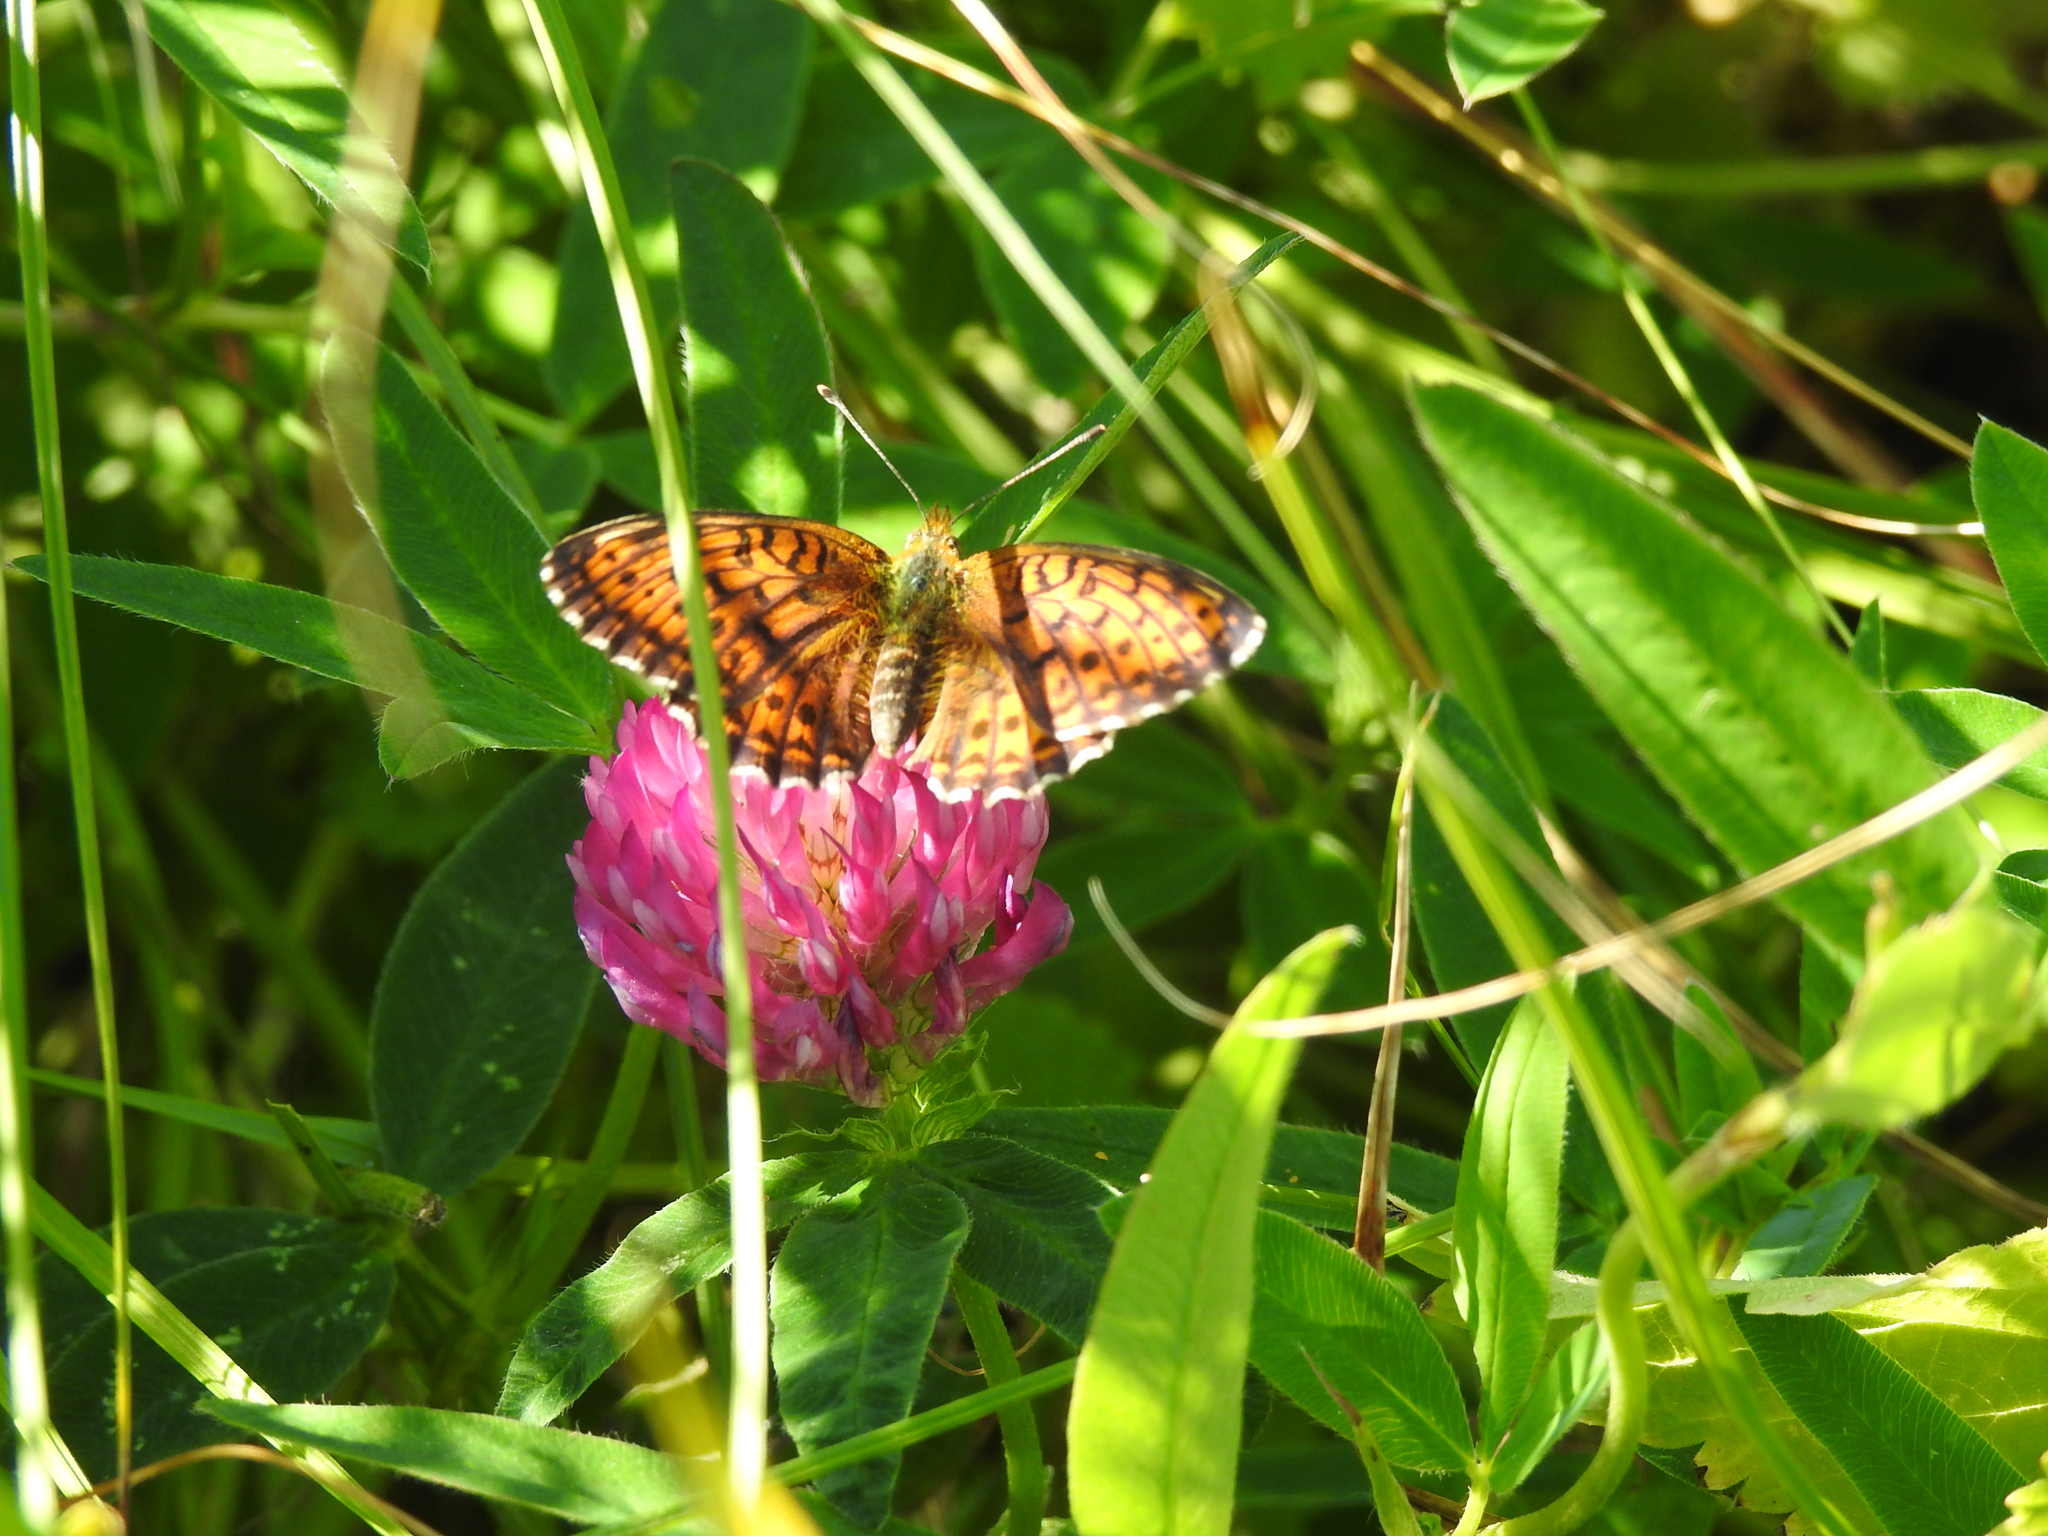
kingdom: Animalia
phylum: Arthropoda
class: Insecta
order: Lepidoptera
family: Nymphalidae
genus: Brenthis
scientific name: Brenthis ino
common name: Lesser marbled fritillary
